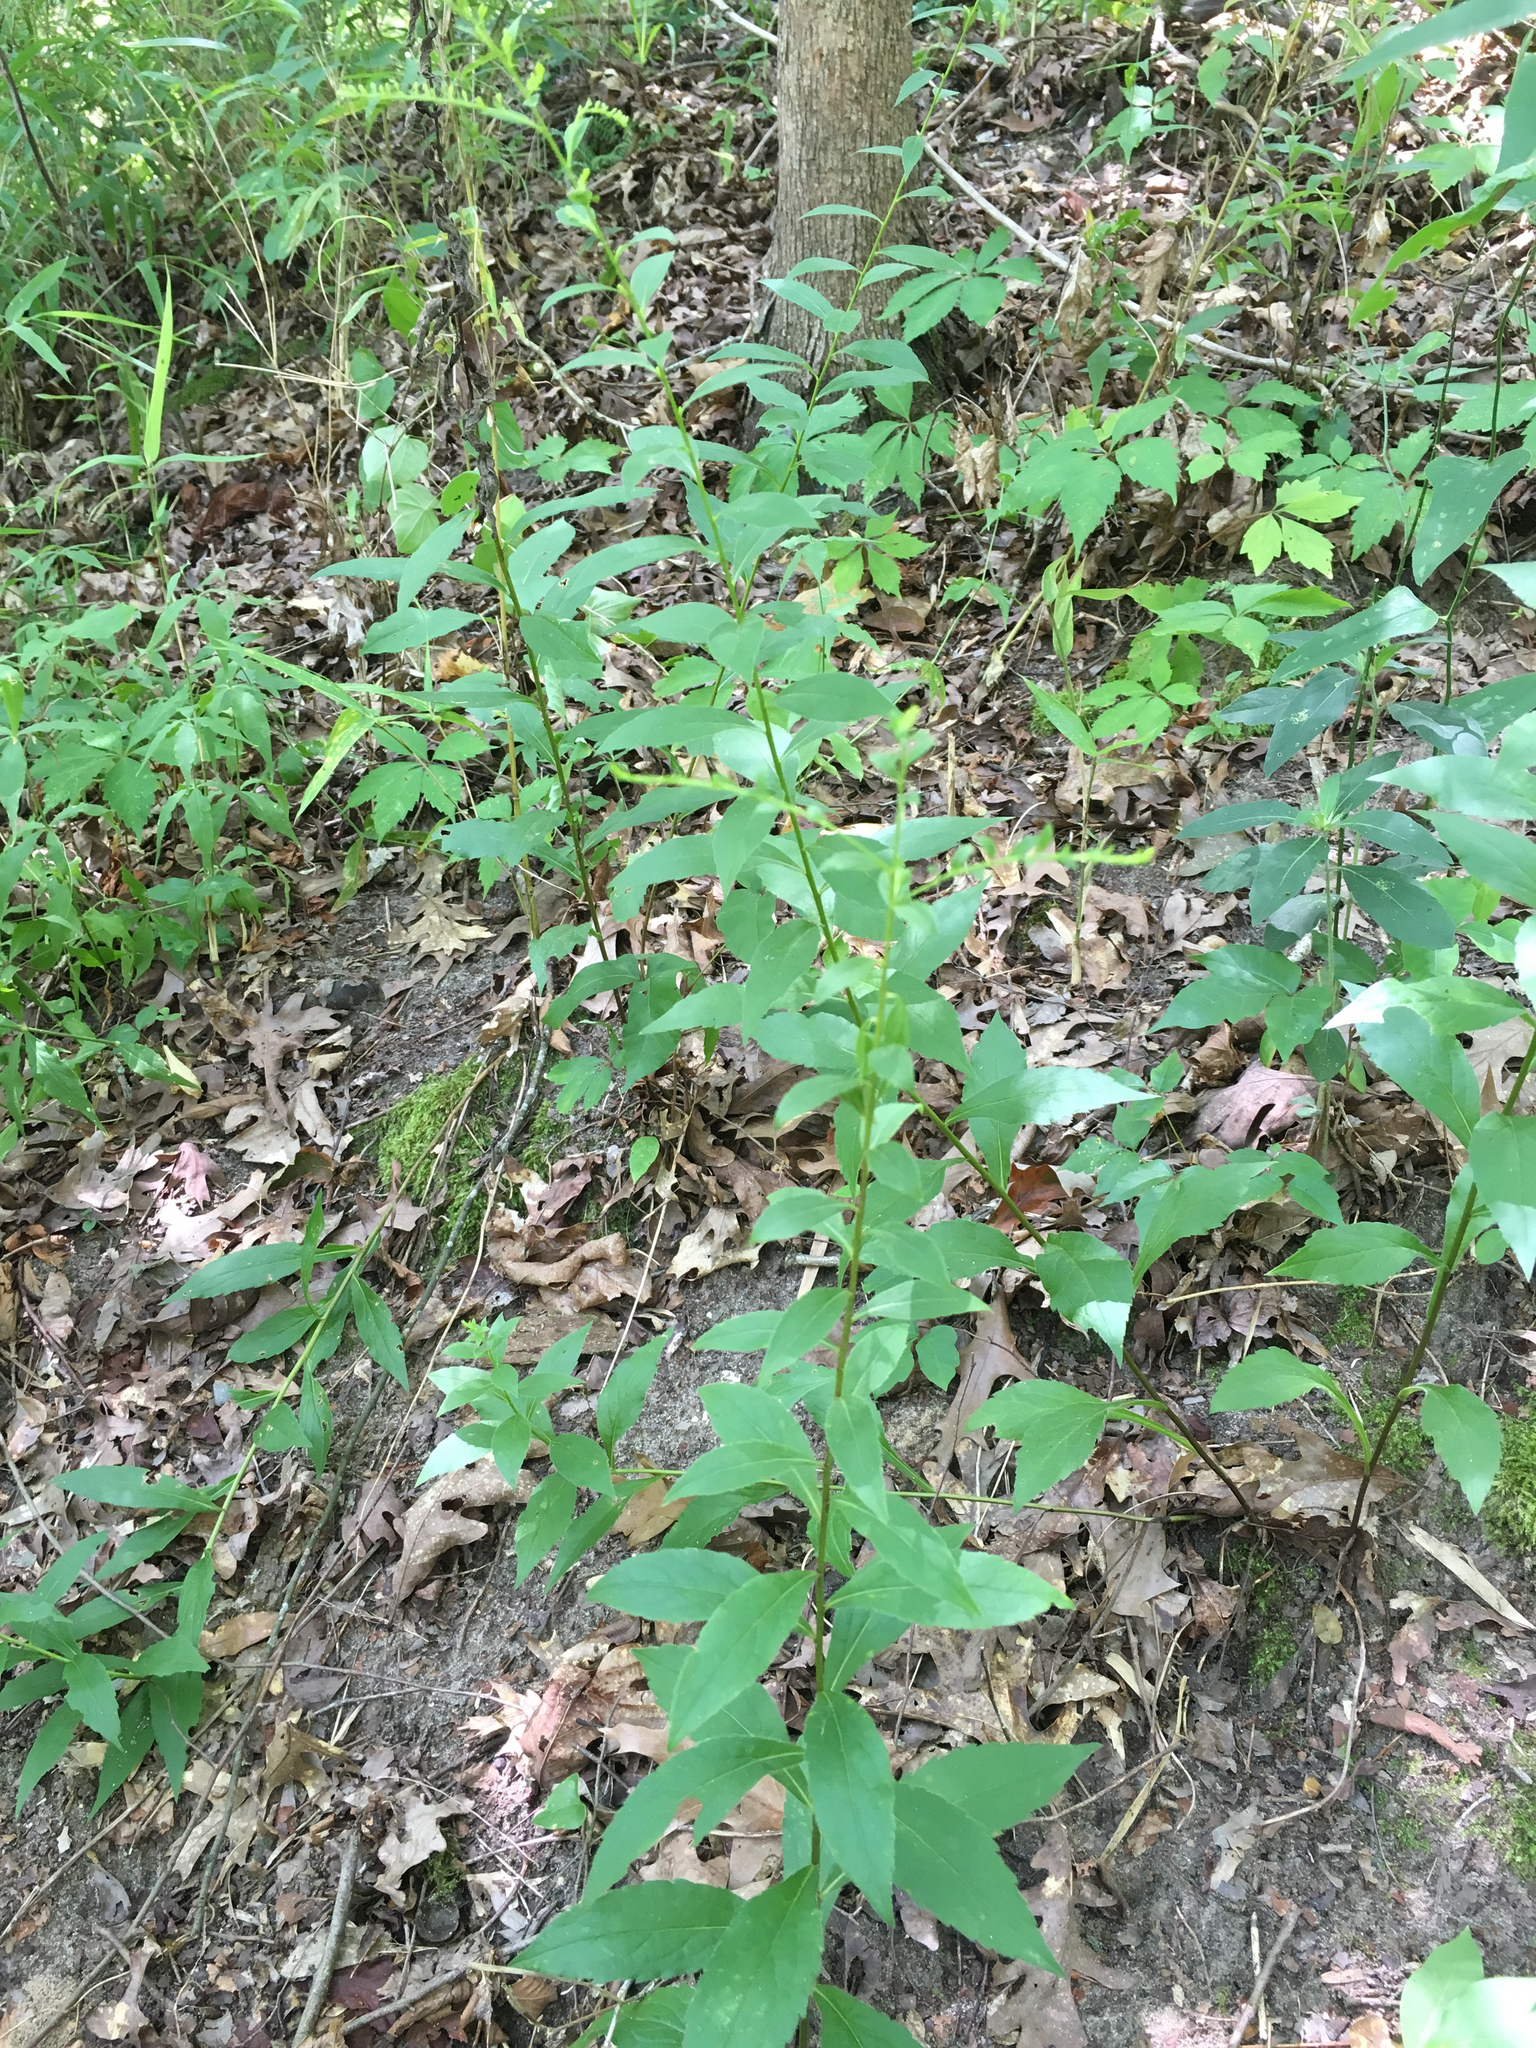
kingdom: Plantae
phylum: Tracheophyta
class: Magnoliopsida
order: Asterales
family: Asteraceae
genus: Solidago
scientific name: Solidago ulmifolia
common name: Elm-leaf goldenrod
